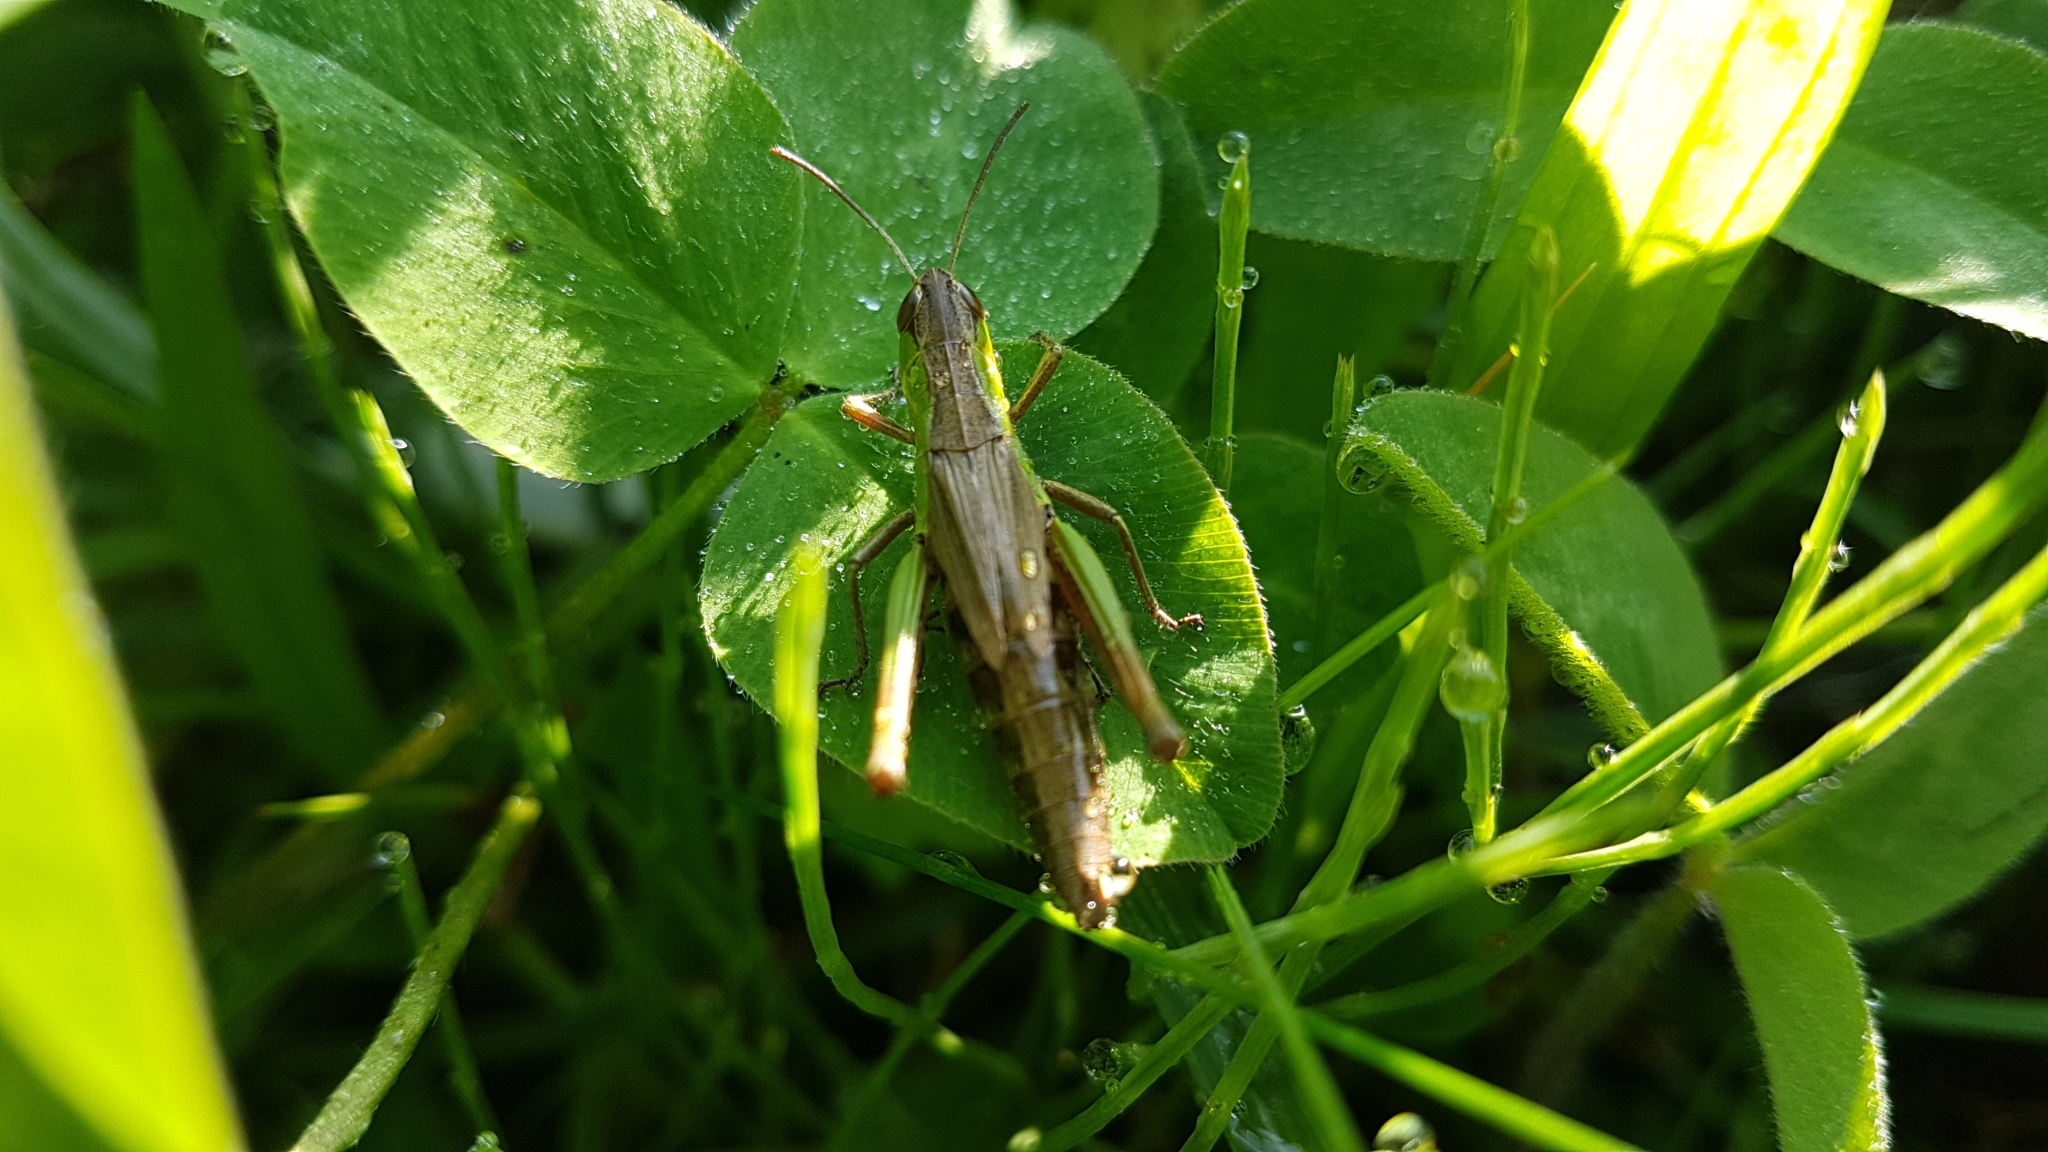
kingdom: Animalia
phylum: Arthropoda
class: Insecta
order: Orthoptera
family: Acrididae
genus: Pseudochorthippus
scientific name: Pseudochorthippus parallelus
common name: Meadow grasshopper
